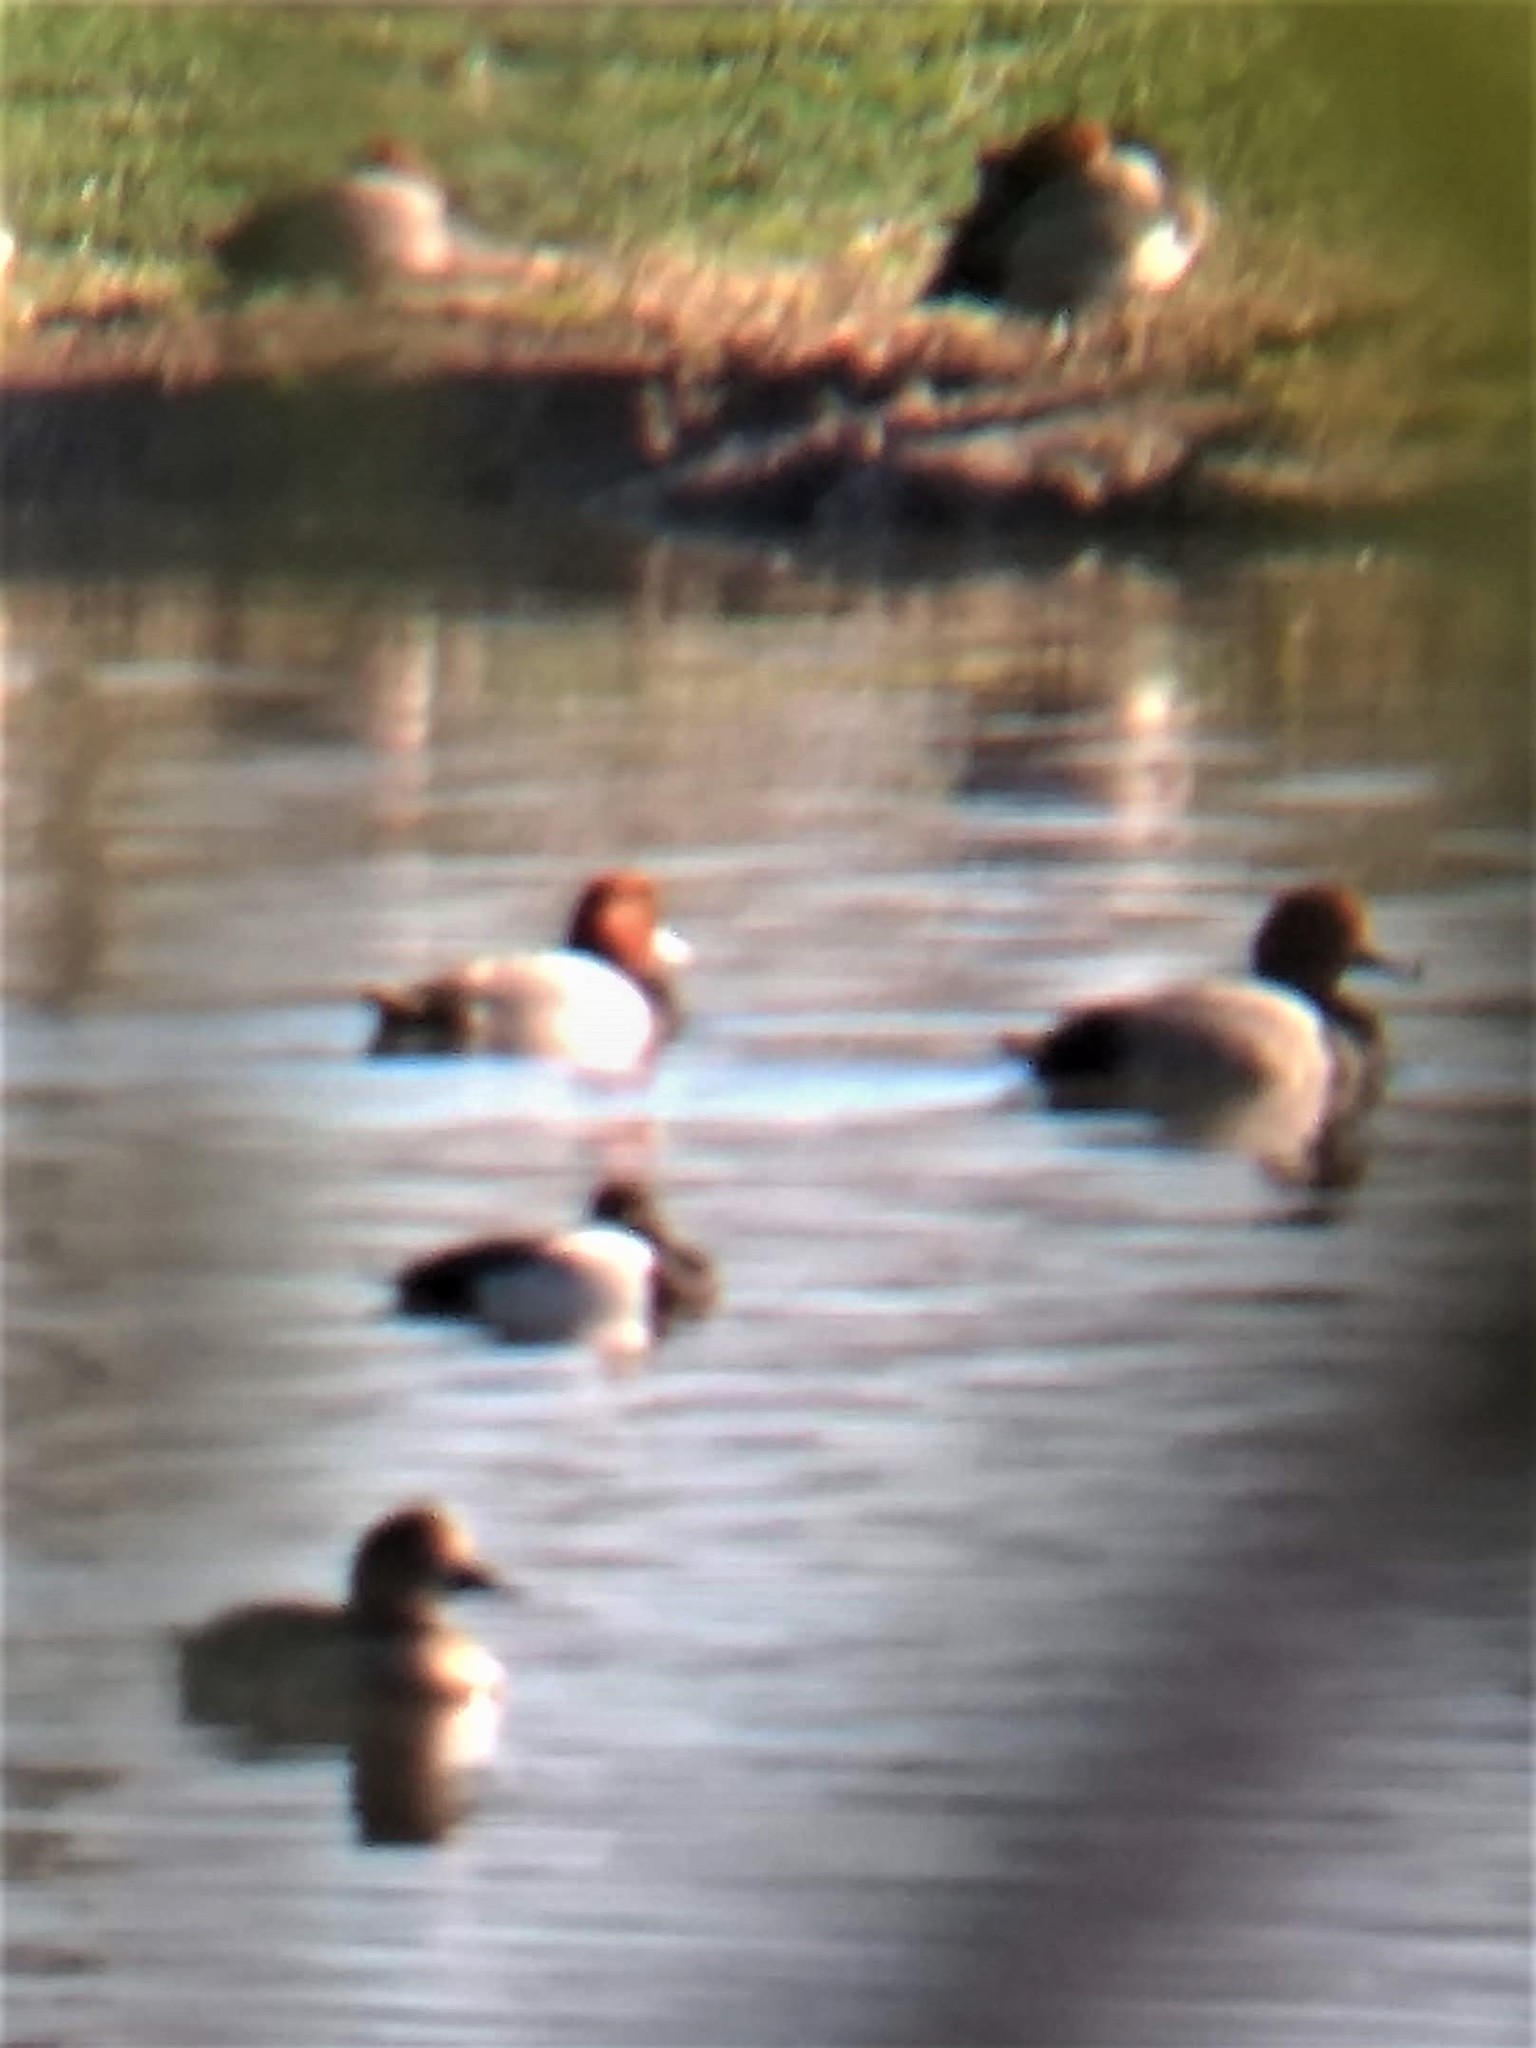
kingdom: Animalia
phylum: Chordata
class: Aves
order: Anseriformes
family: Anatidae
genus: Aythya
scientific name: Aythya americana
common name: Redhead
